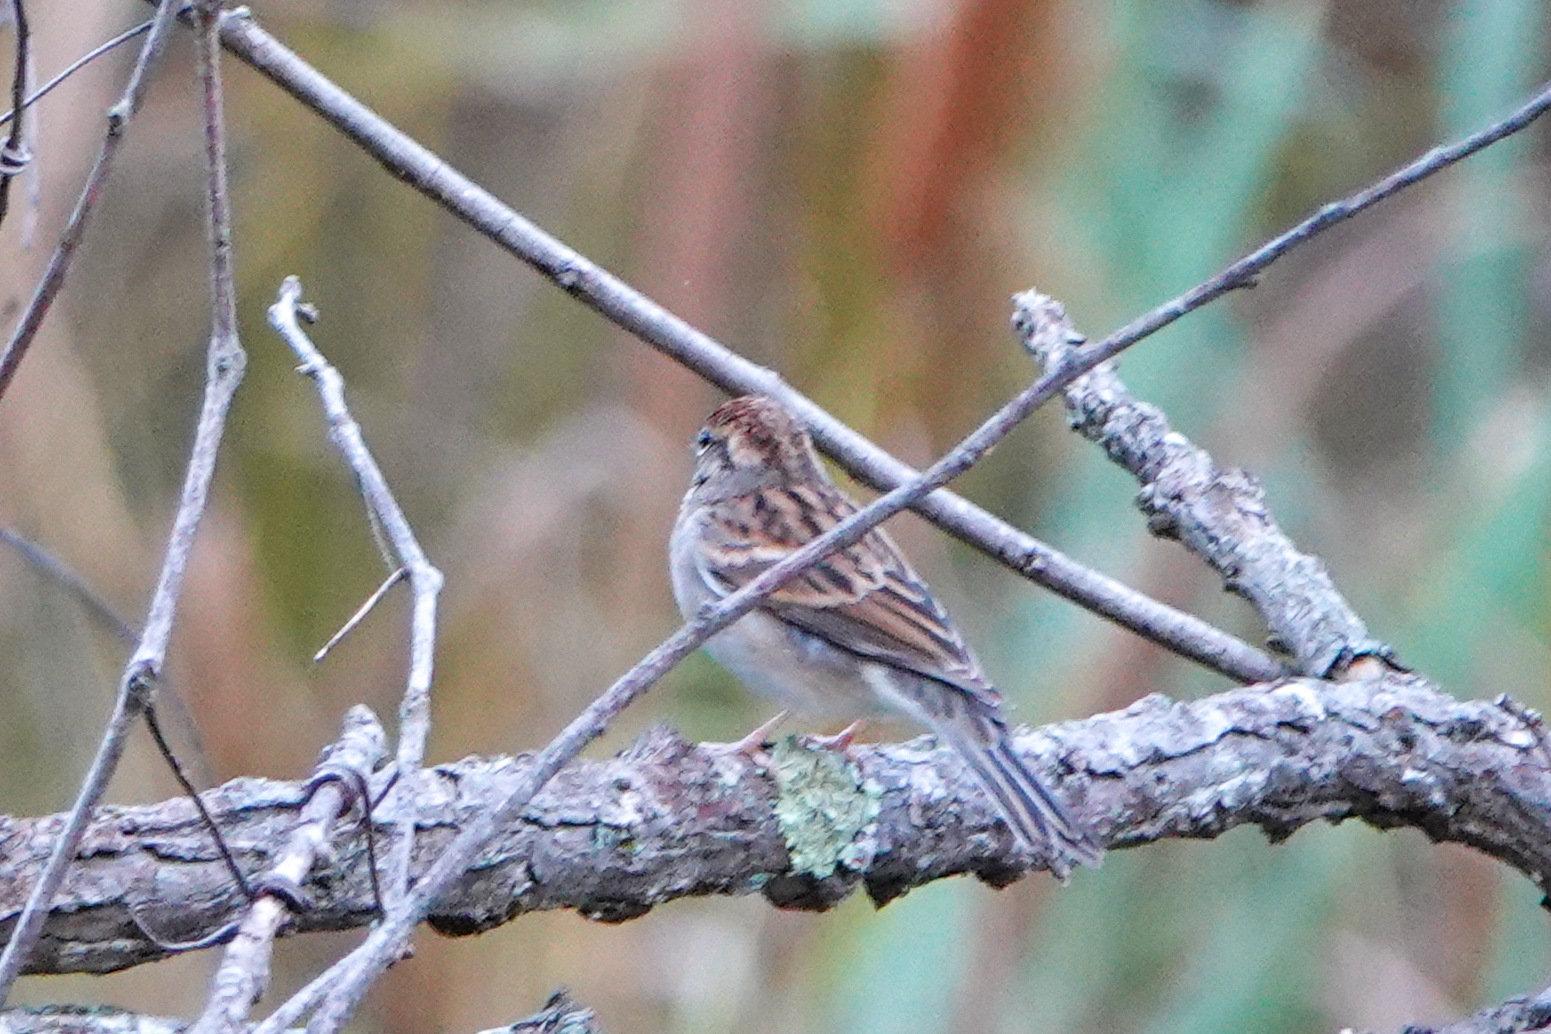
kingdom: Animalia
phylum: Chordata
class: Aves
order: Passeriformes
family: Passerellidae
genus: Spizella
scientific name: Spizella passerina
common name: Chipping sparrow
